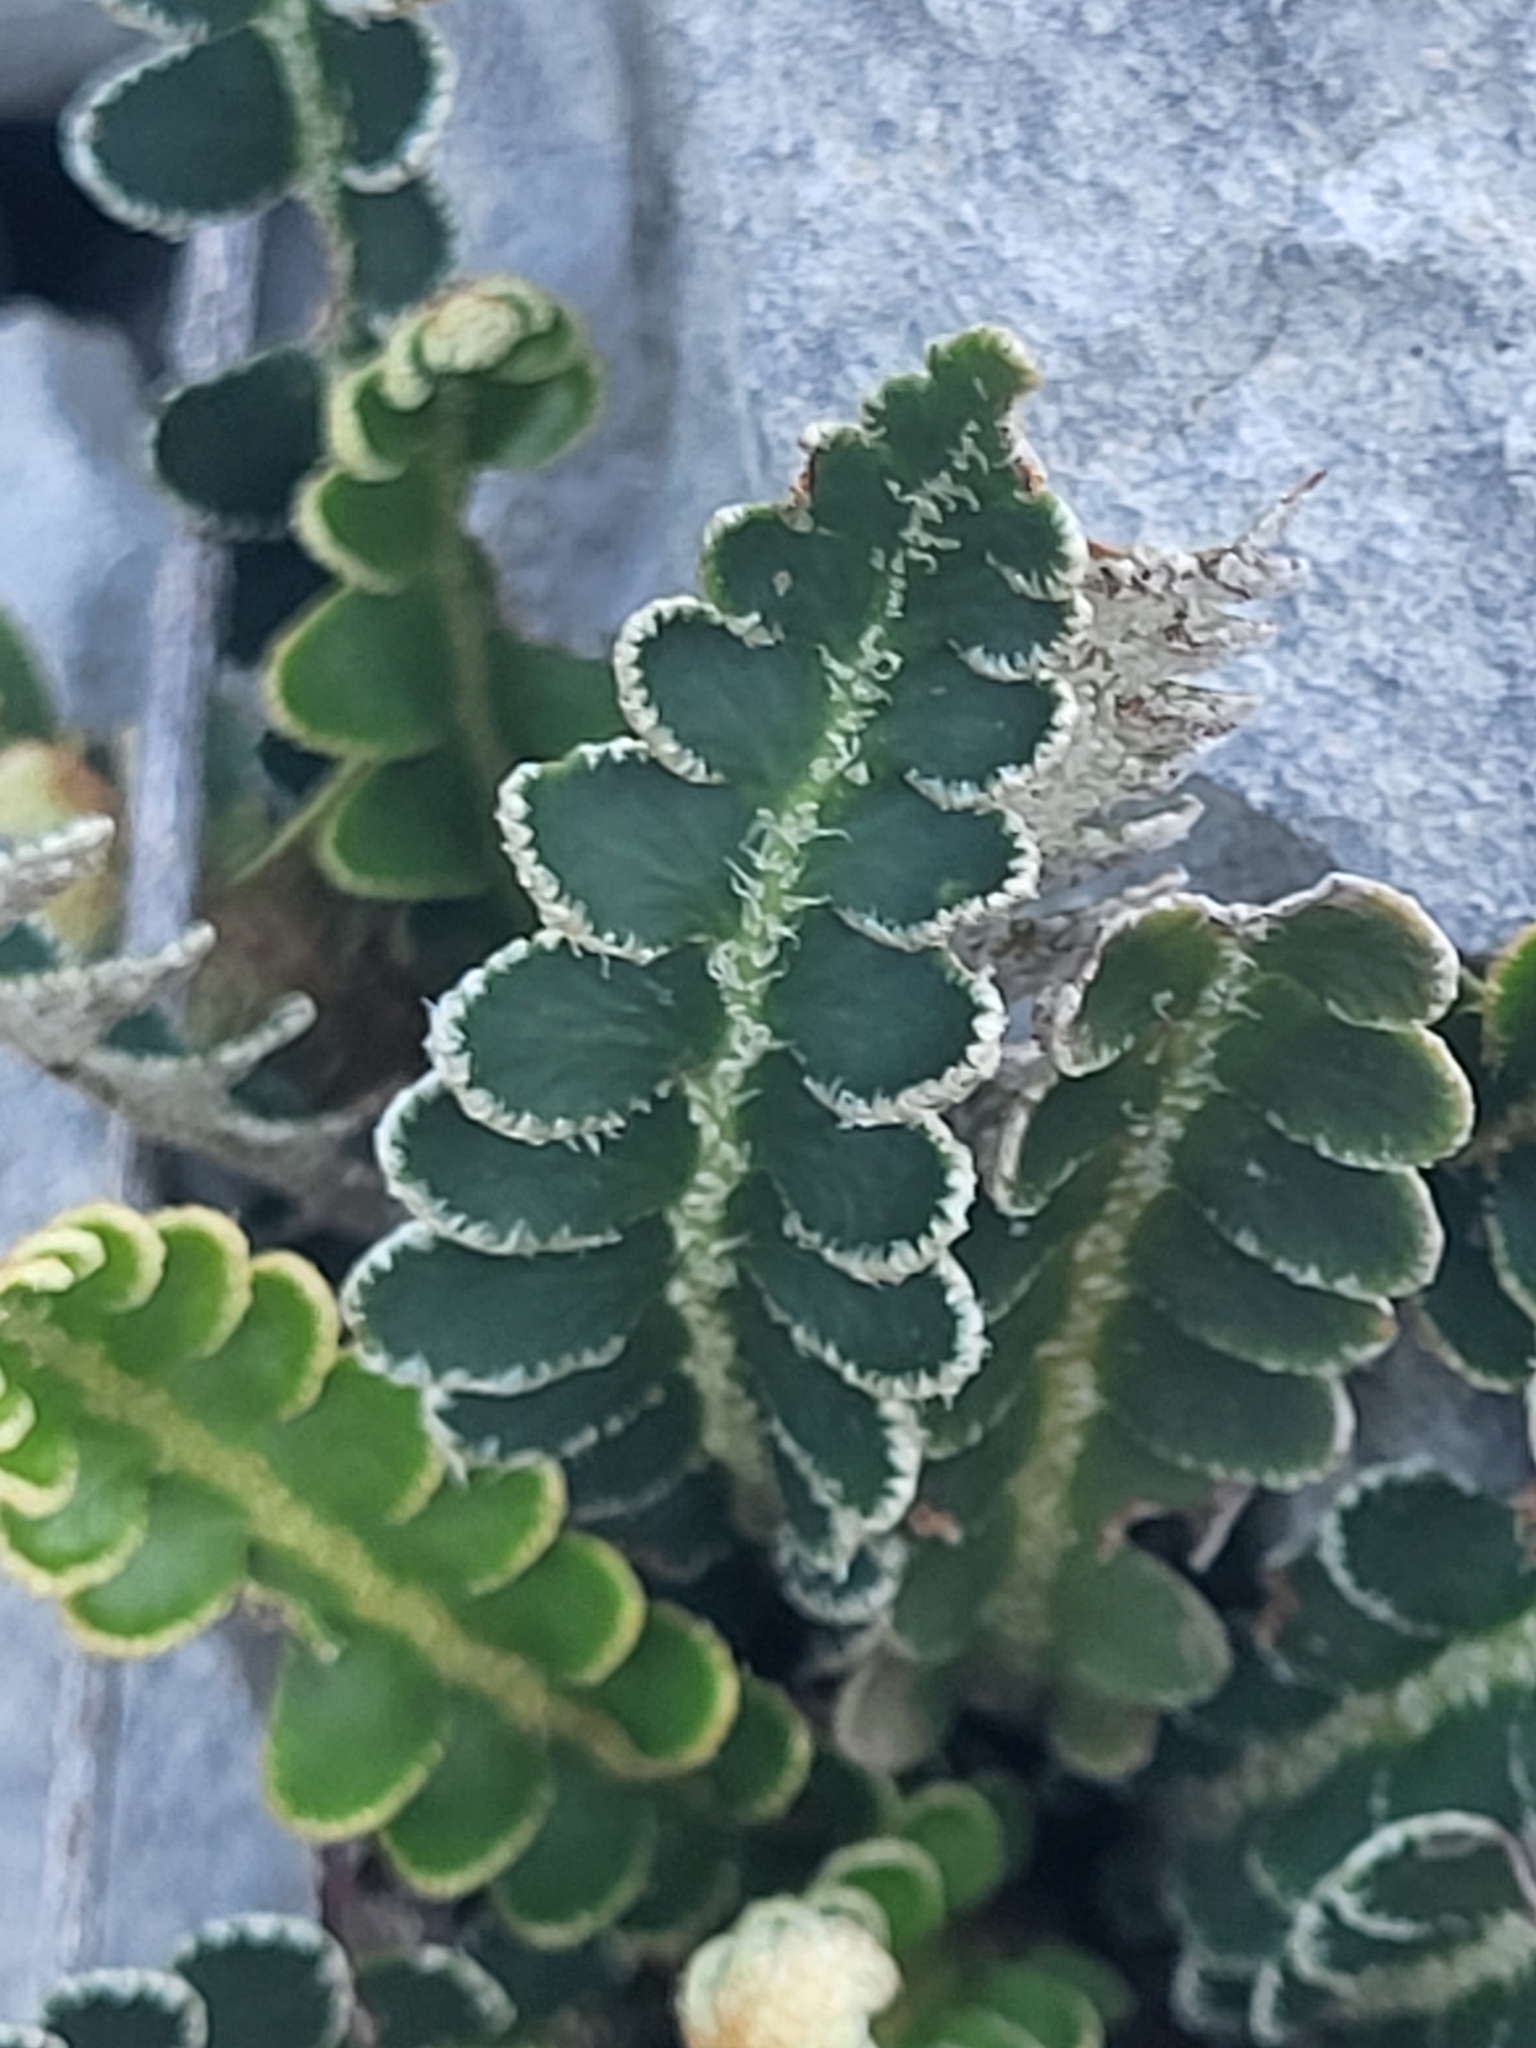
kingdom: Plantae
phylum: Tracheophyta
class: Polypodiopsida
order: Polypodiales
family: Aspleniaceae
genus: Asplenium
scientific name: Asplenium ceterach
